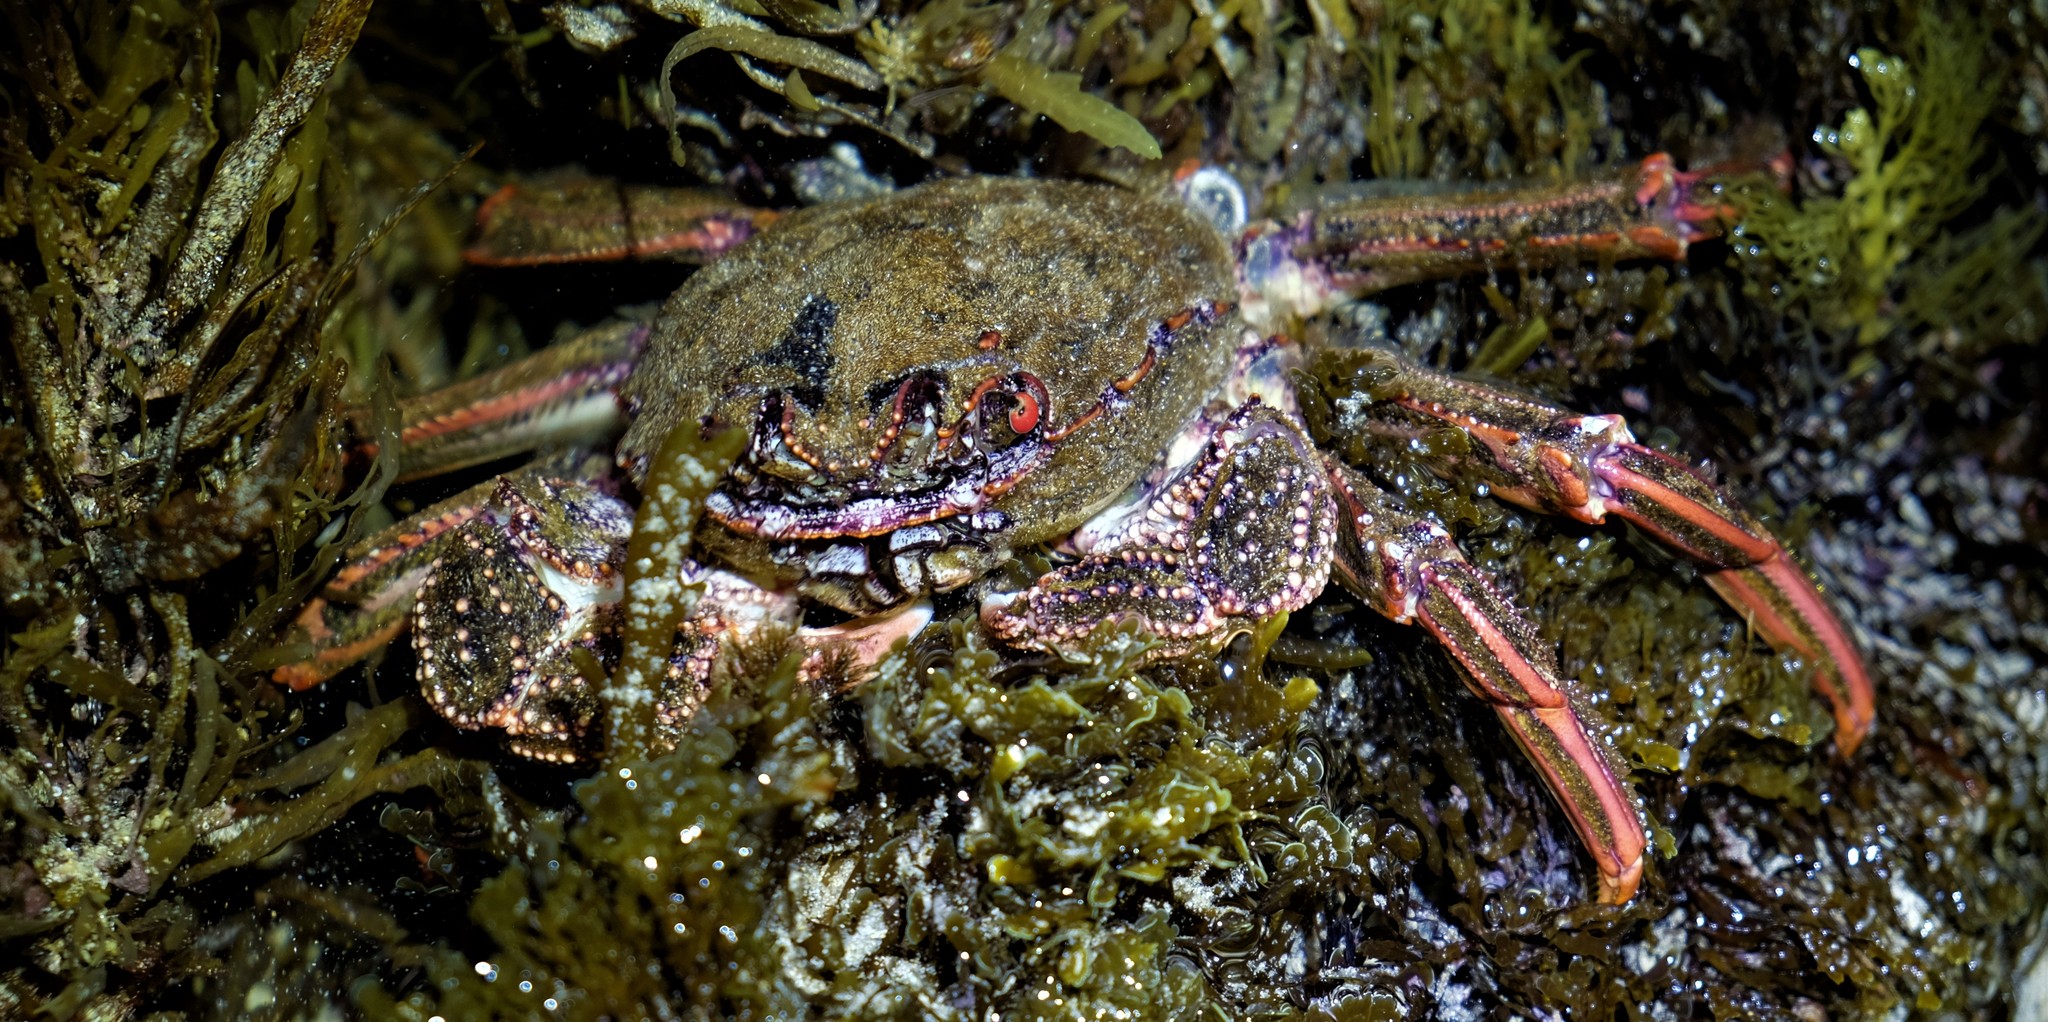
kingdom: Animalia
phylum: Arthropoda
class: Malacostraca
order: Decapoda
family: Plagusiidae
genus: Guinusia
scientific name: Guinusia chabrus
